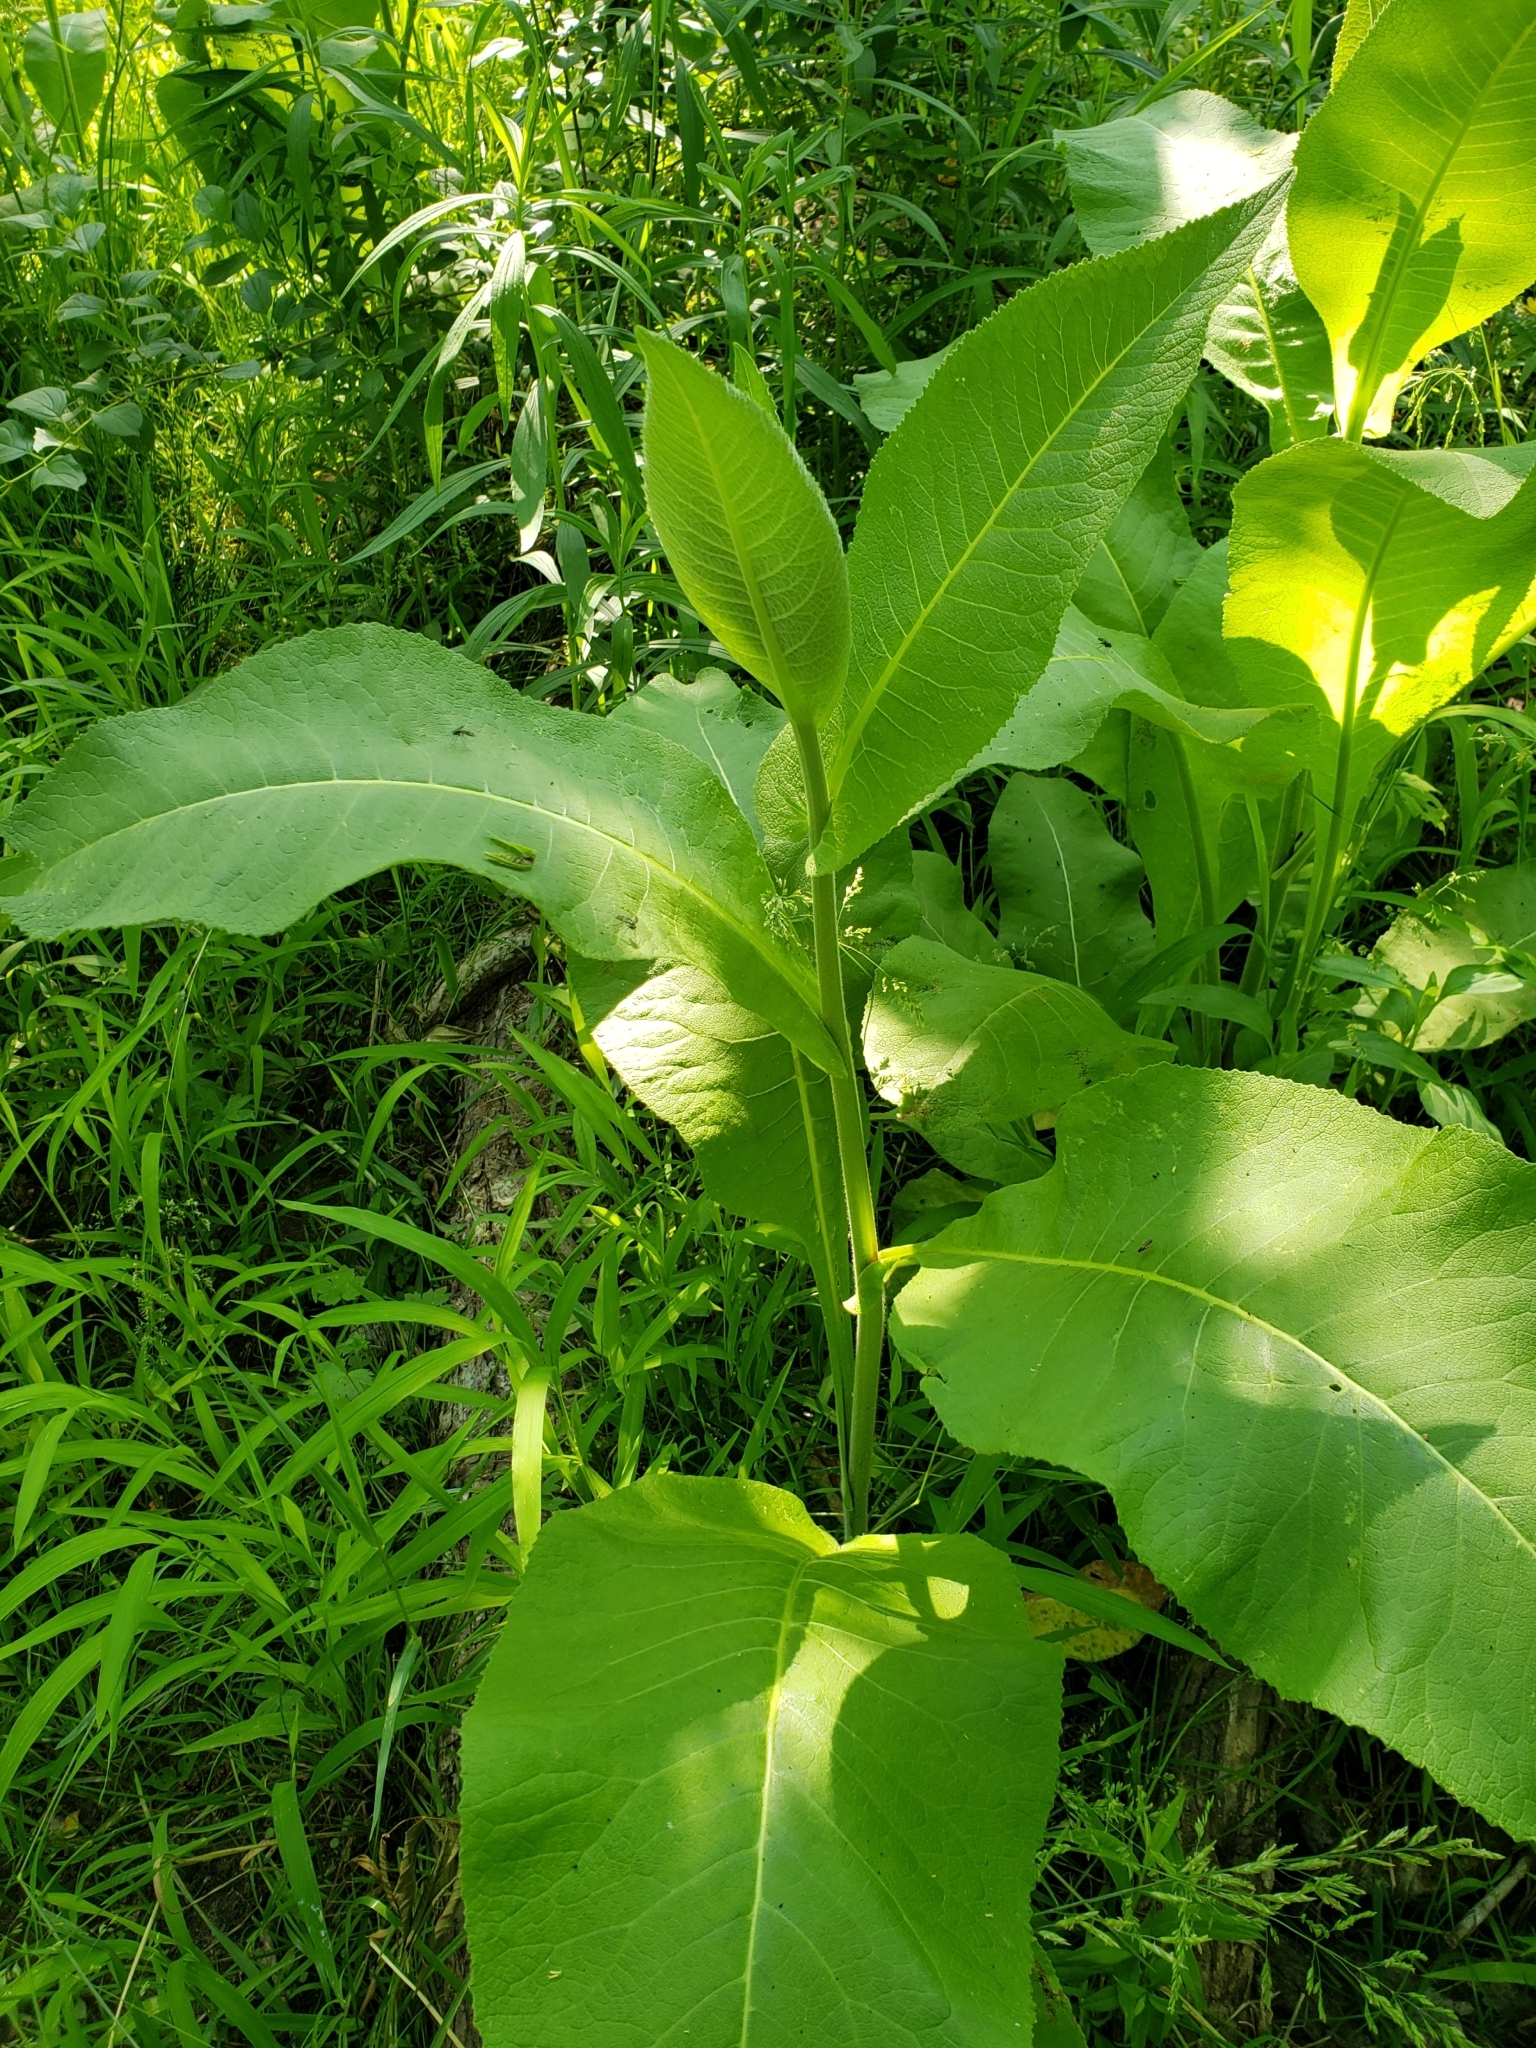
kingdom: Plantae
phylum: Tracheophyta
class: Magnoliopsida
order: Asterales
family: Asteraceae
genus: Inula
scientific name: Inula helenium
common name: Elecampane
